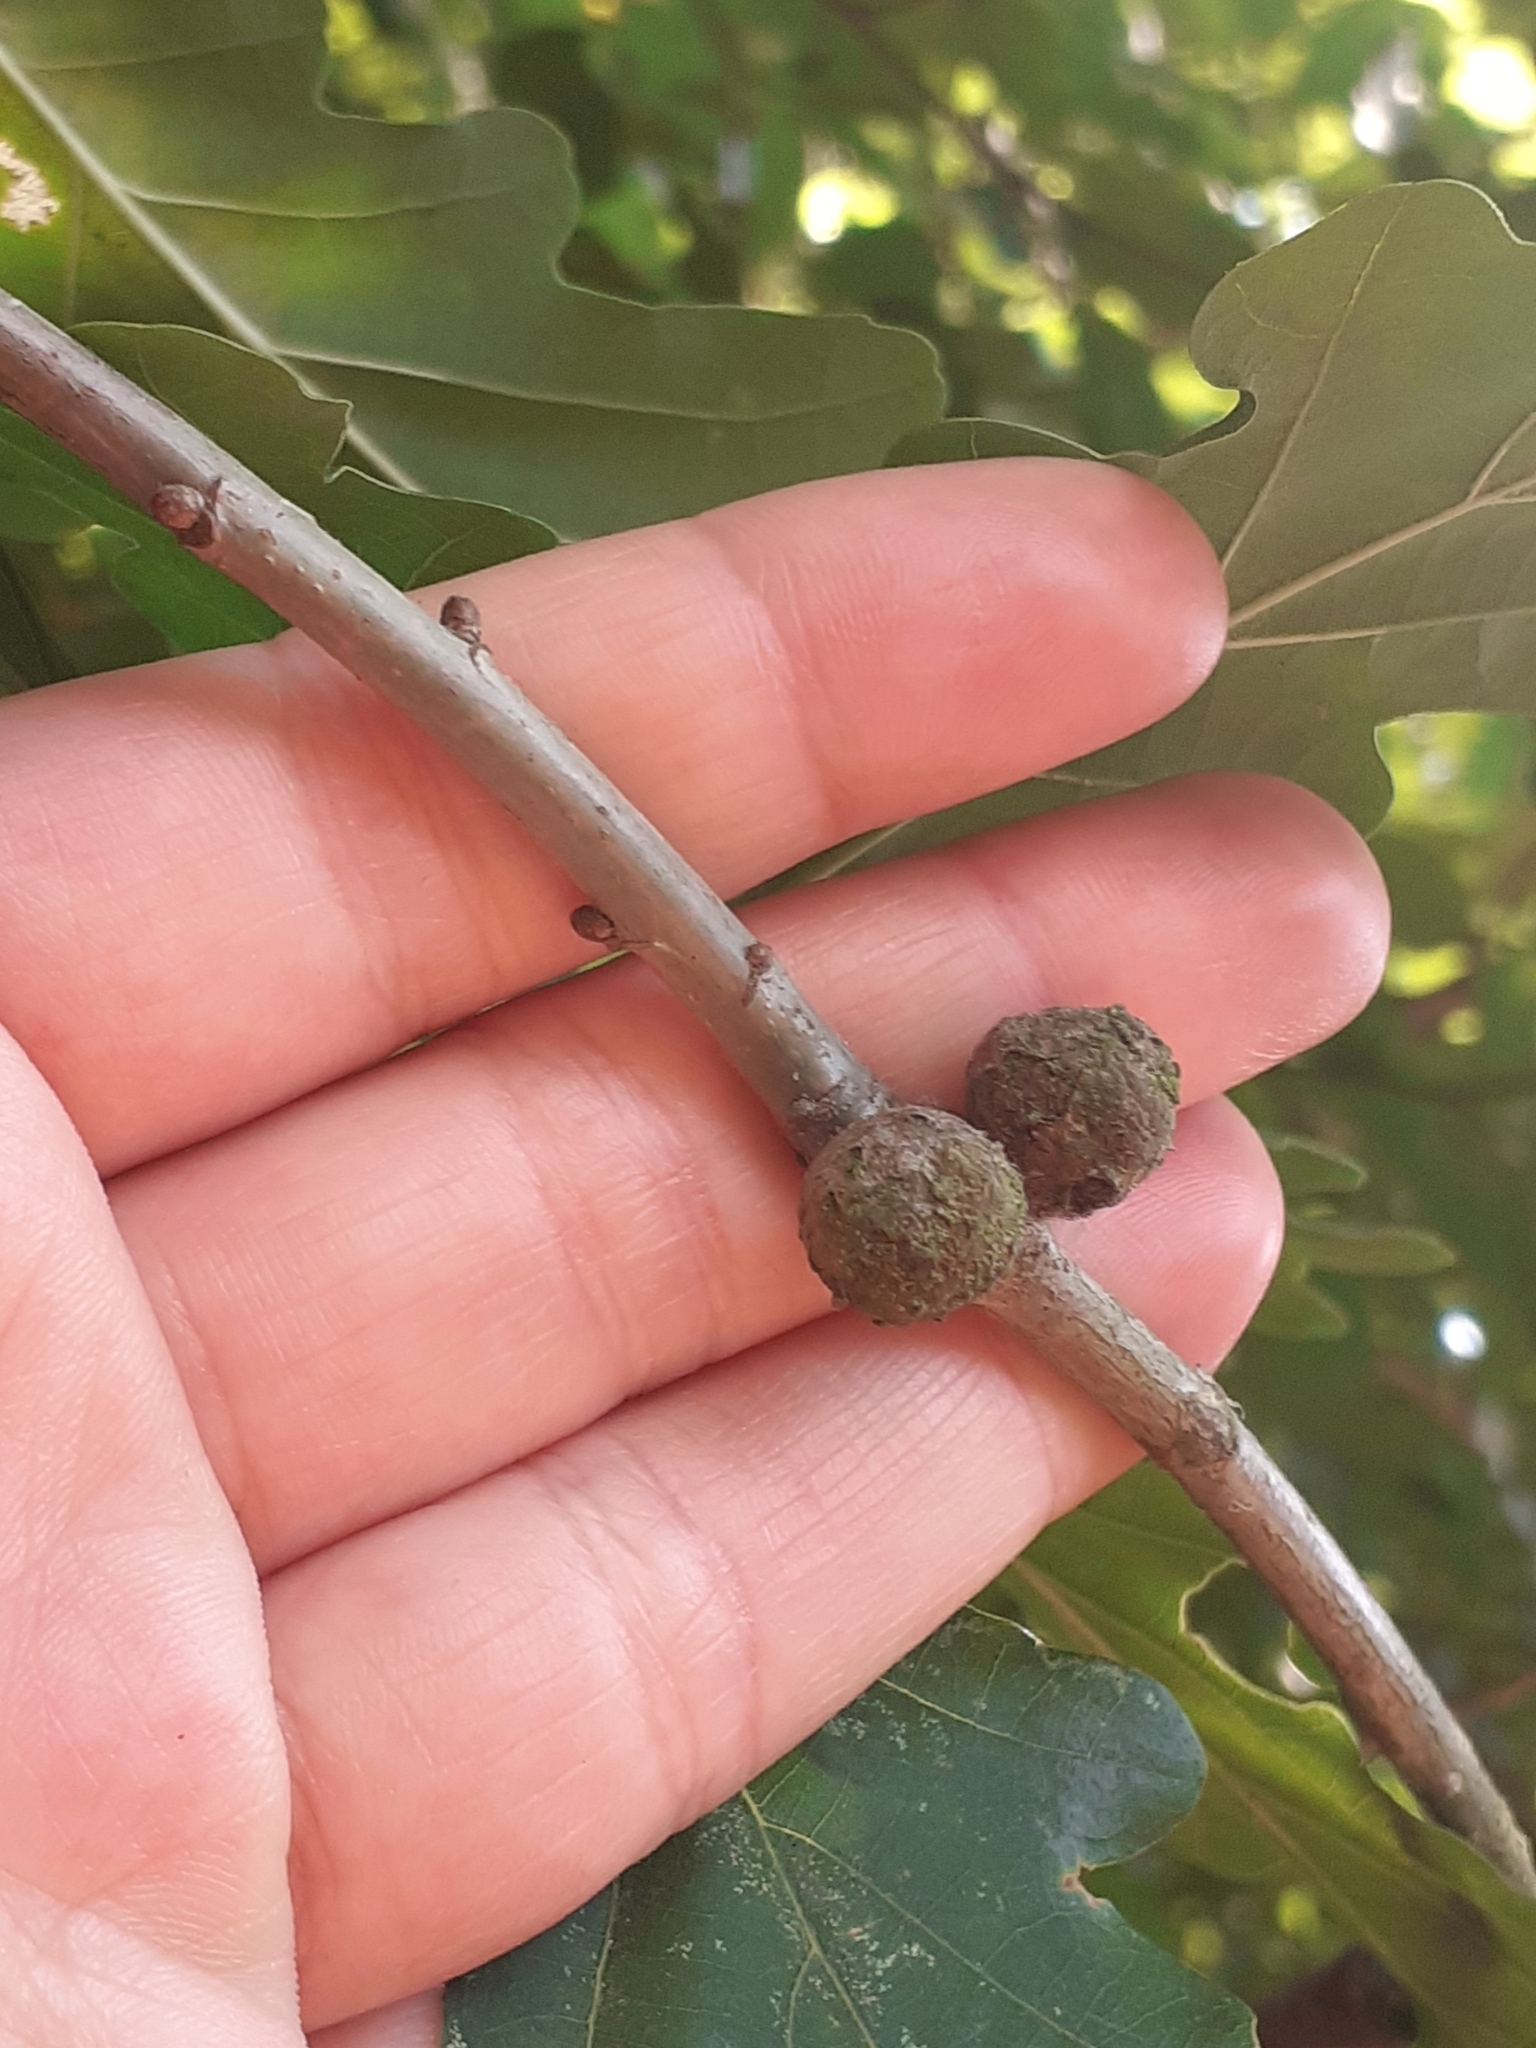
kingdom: Animalia
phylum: Arthropoda
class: Insecta
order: Hymenoptera
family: Cynipidae
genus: Andricus
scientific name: Andricus lignicolus
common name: Cola-nut gall
